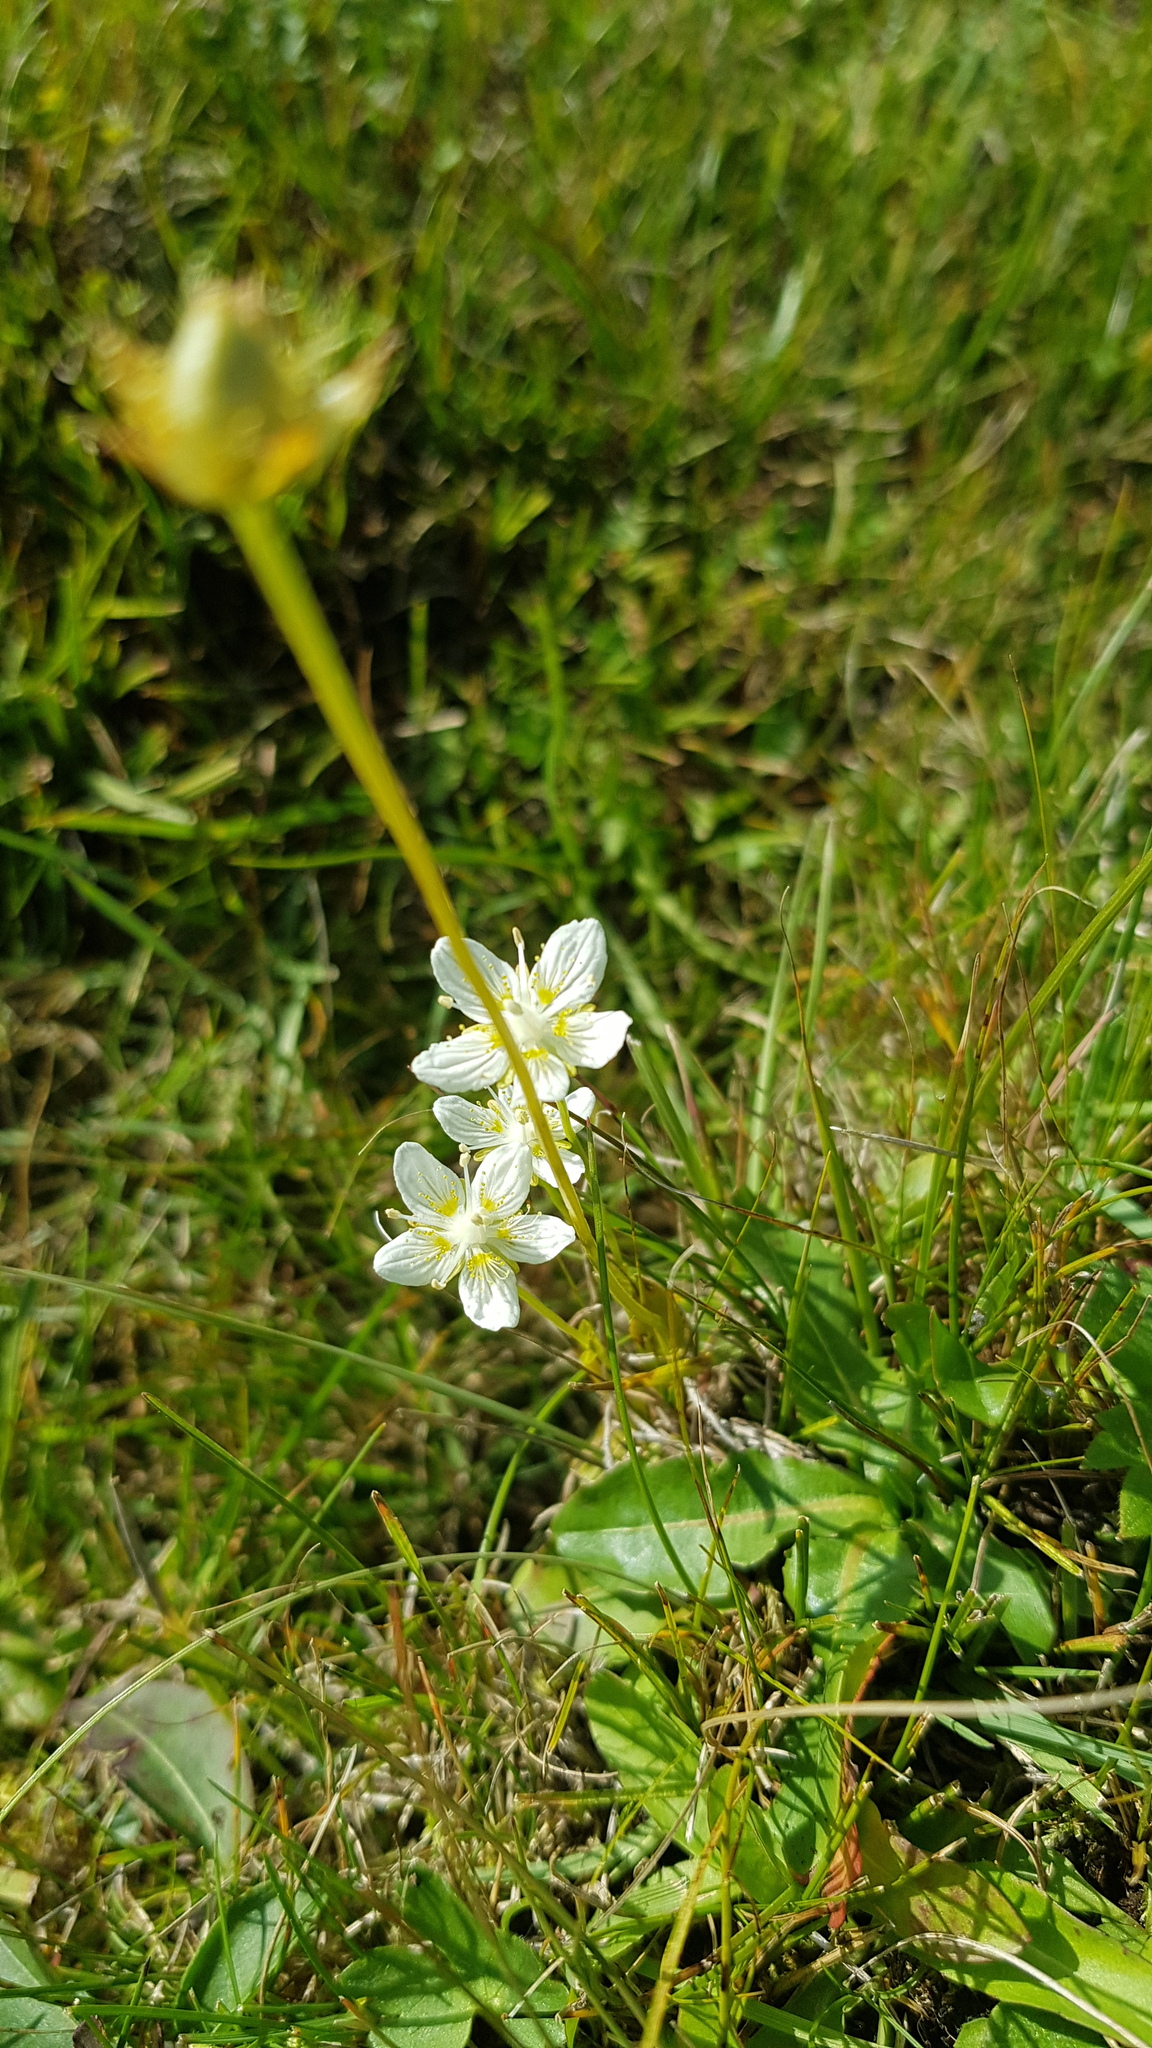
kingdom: Plantae
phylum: Tracheophyta
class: Magnoliopsida
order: Celastrales
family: Parnassiaceae
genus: Parnassia
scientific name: Parnassia palustris
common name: Grass-of-parnassus
